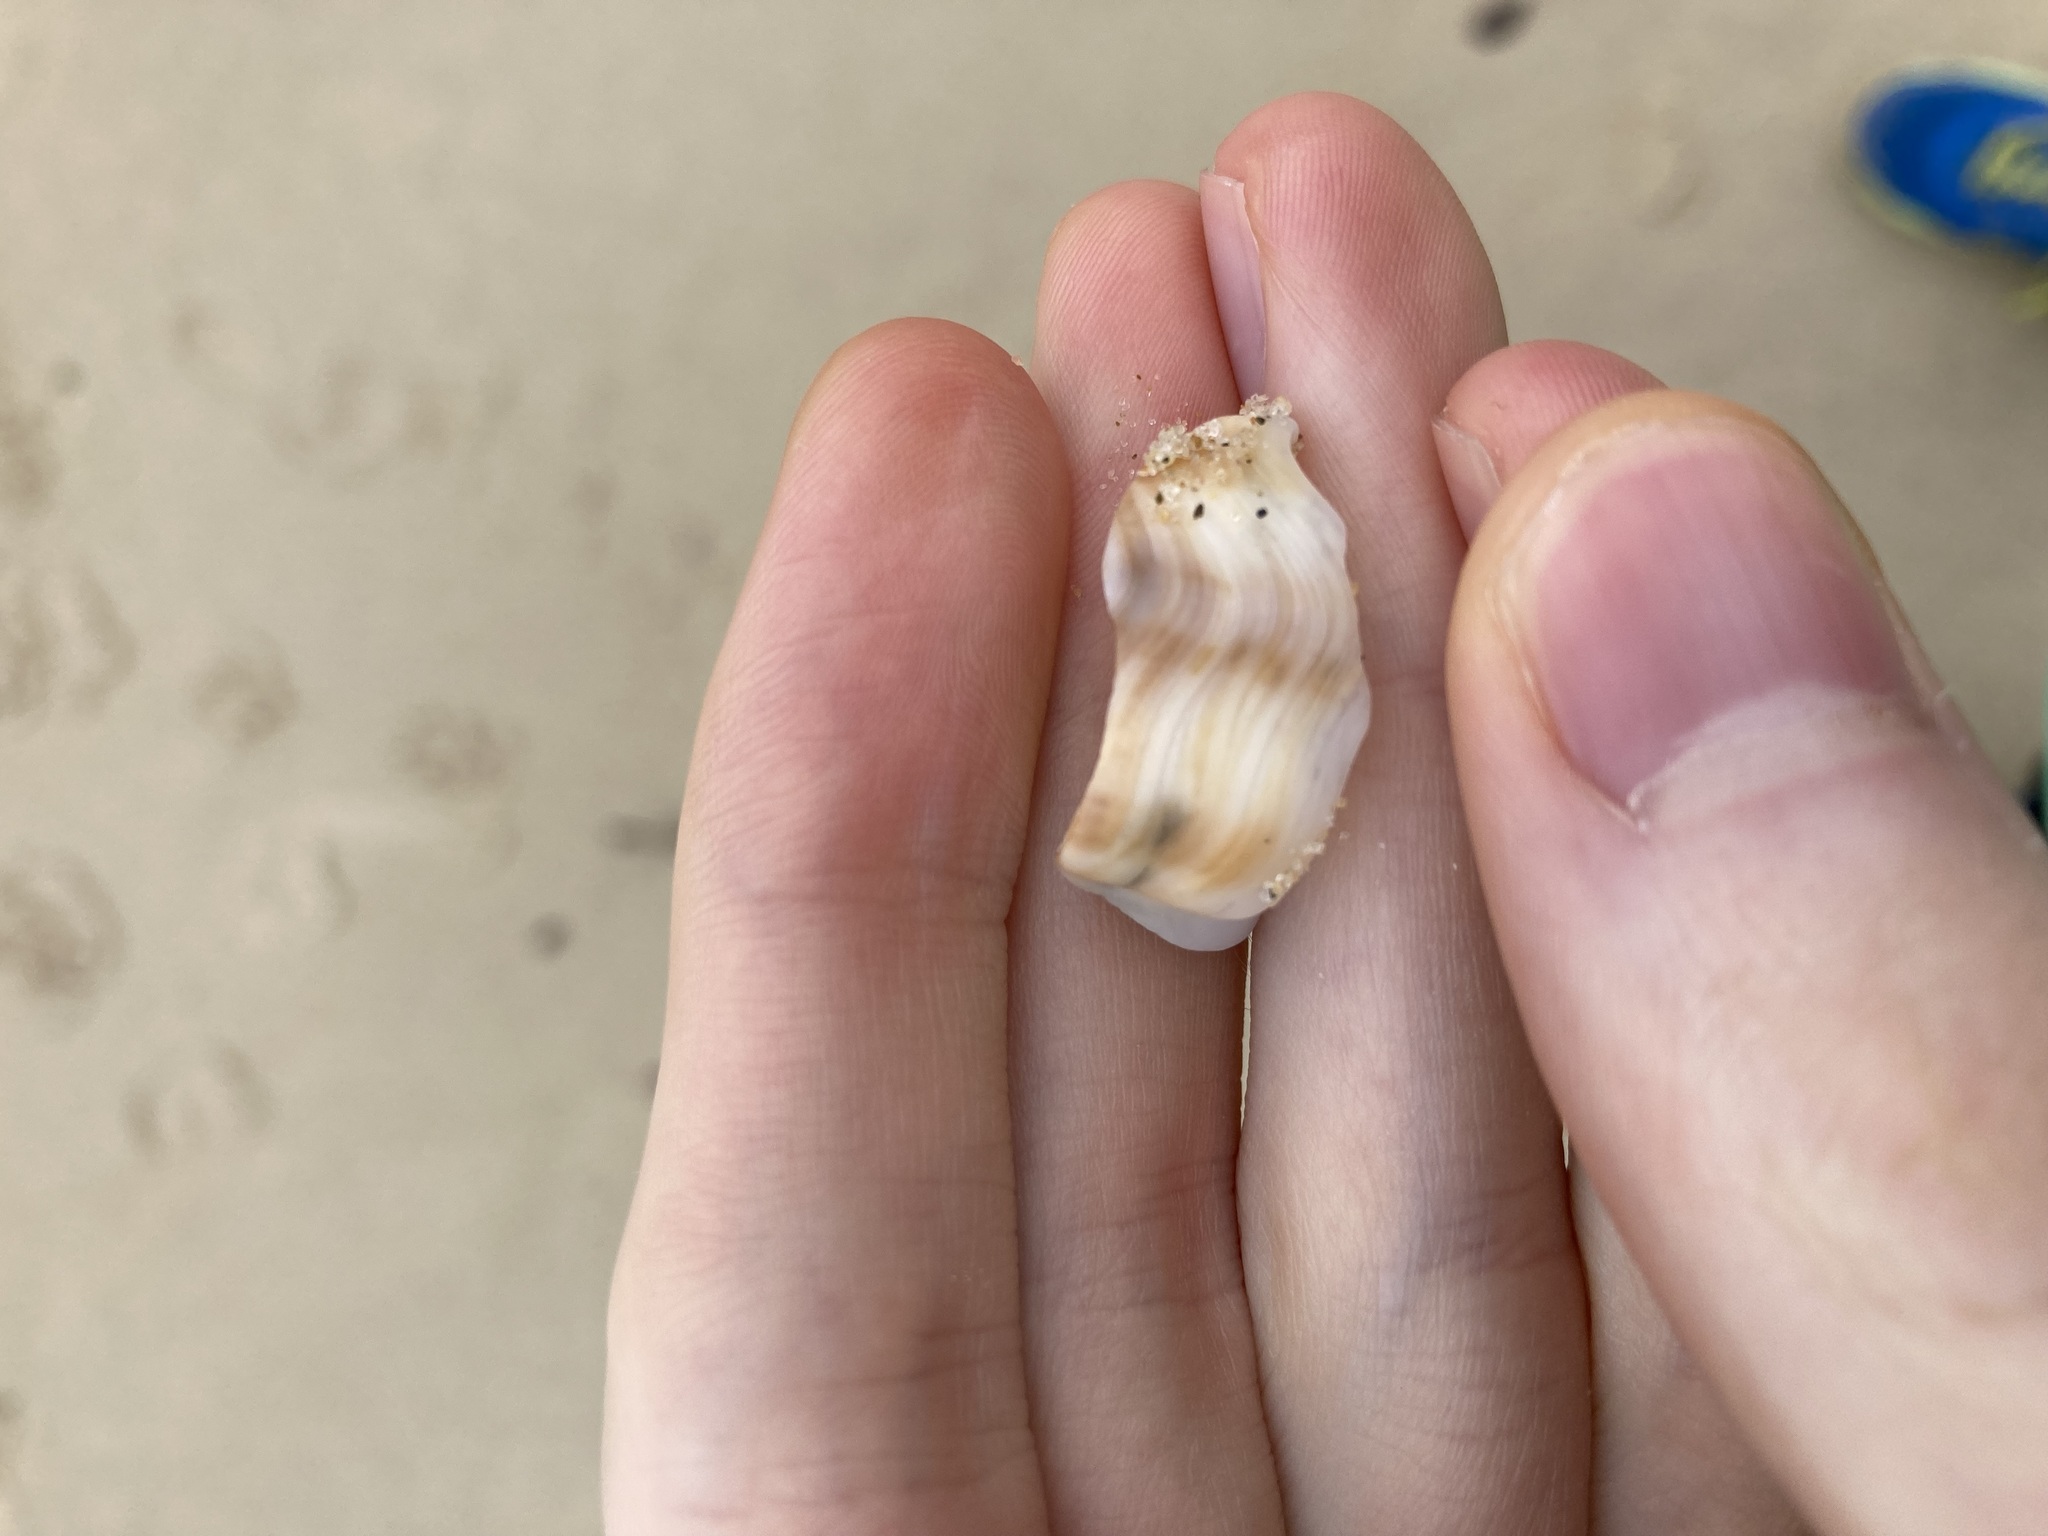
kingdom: Animalia
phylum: Mollusca
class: Gastropoda
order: Littorinimorpha
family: Struthiolariidae
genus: Tylospira
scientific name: Tylospira scutulata
